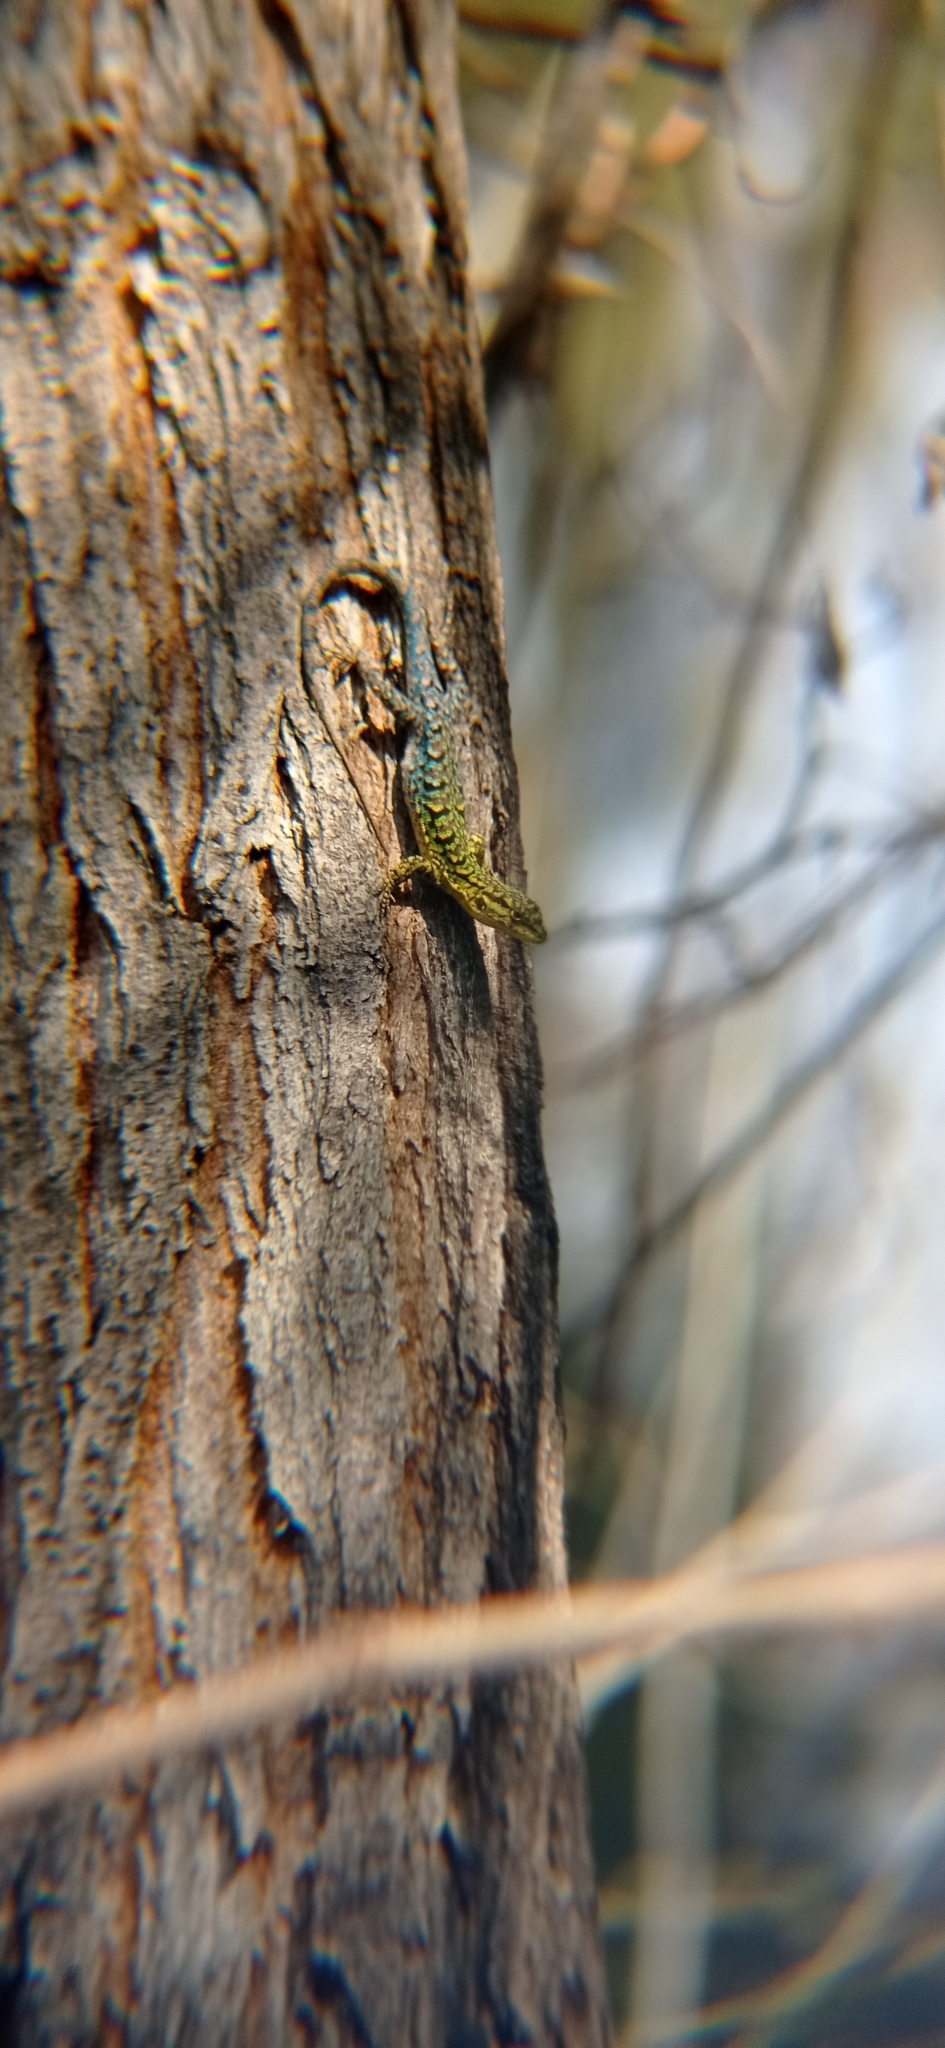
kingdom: Animalia
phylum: Chordata
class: Squamata
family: Liolaemidae
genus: Liolaemus
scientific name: Liolaemus tenuis
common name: Thin tree iguana
